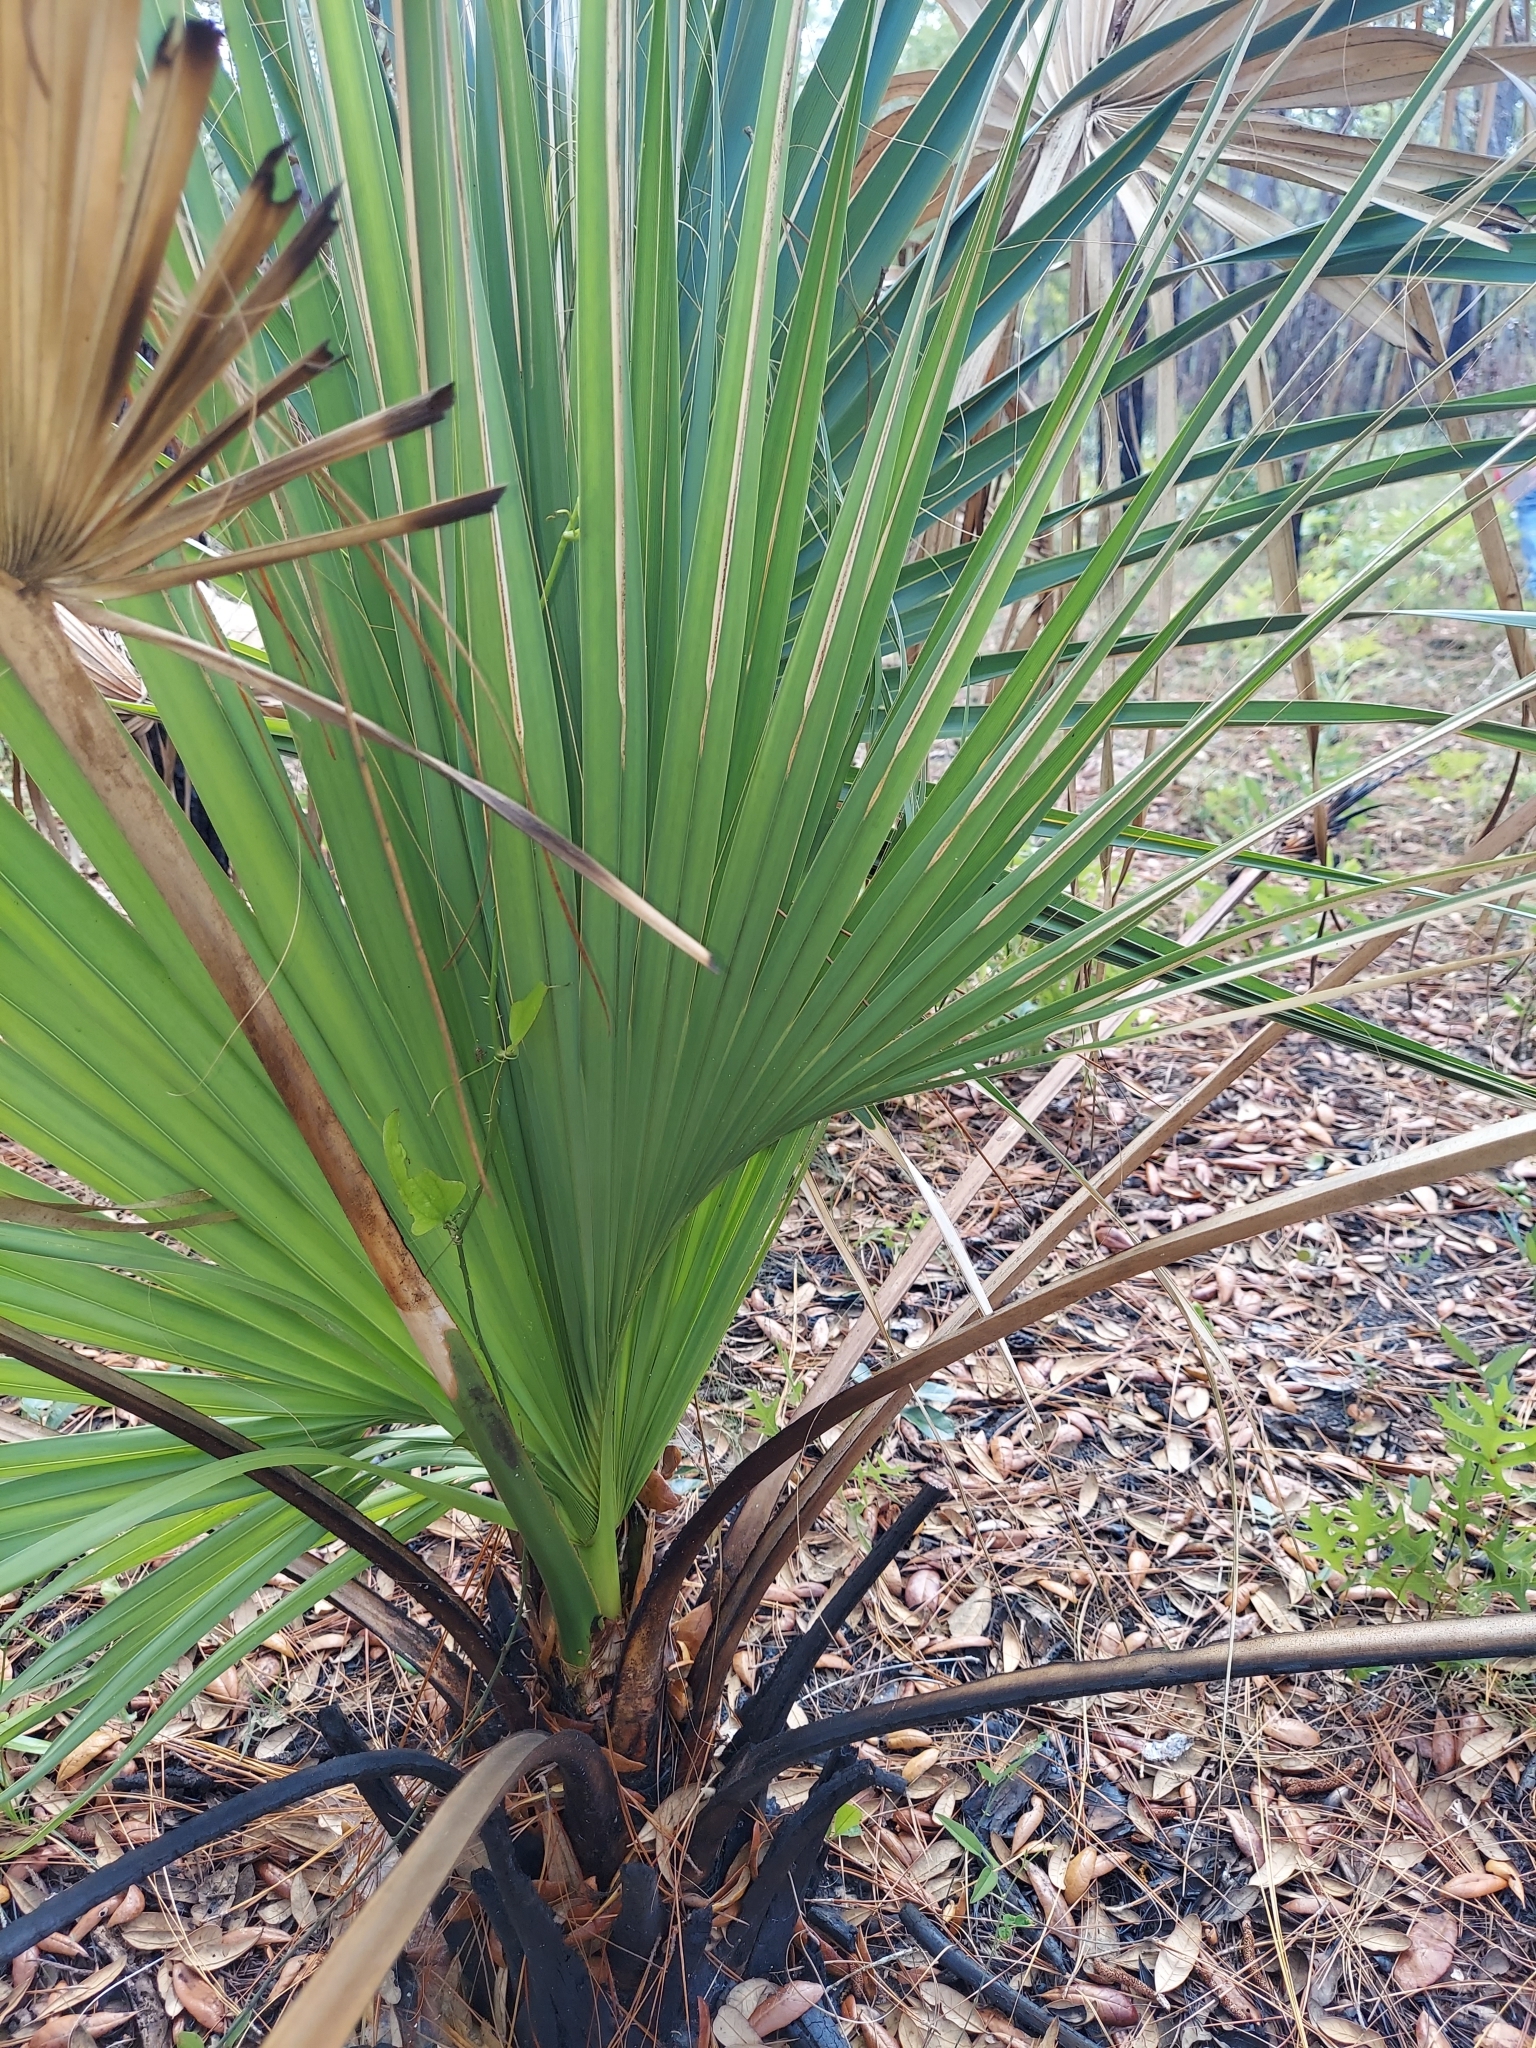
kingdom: Plantae
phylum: Tracheophyta
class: Liliopsida
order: Arecales
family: Arecaceae
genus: Sabal
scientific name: Sabal palmetto
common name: Blue palmetto
